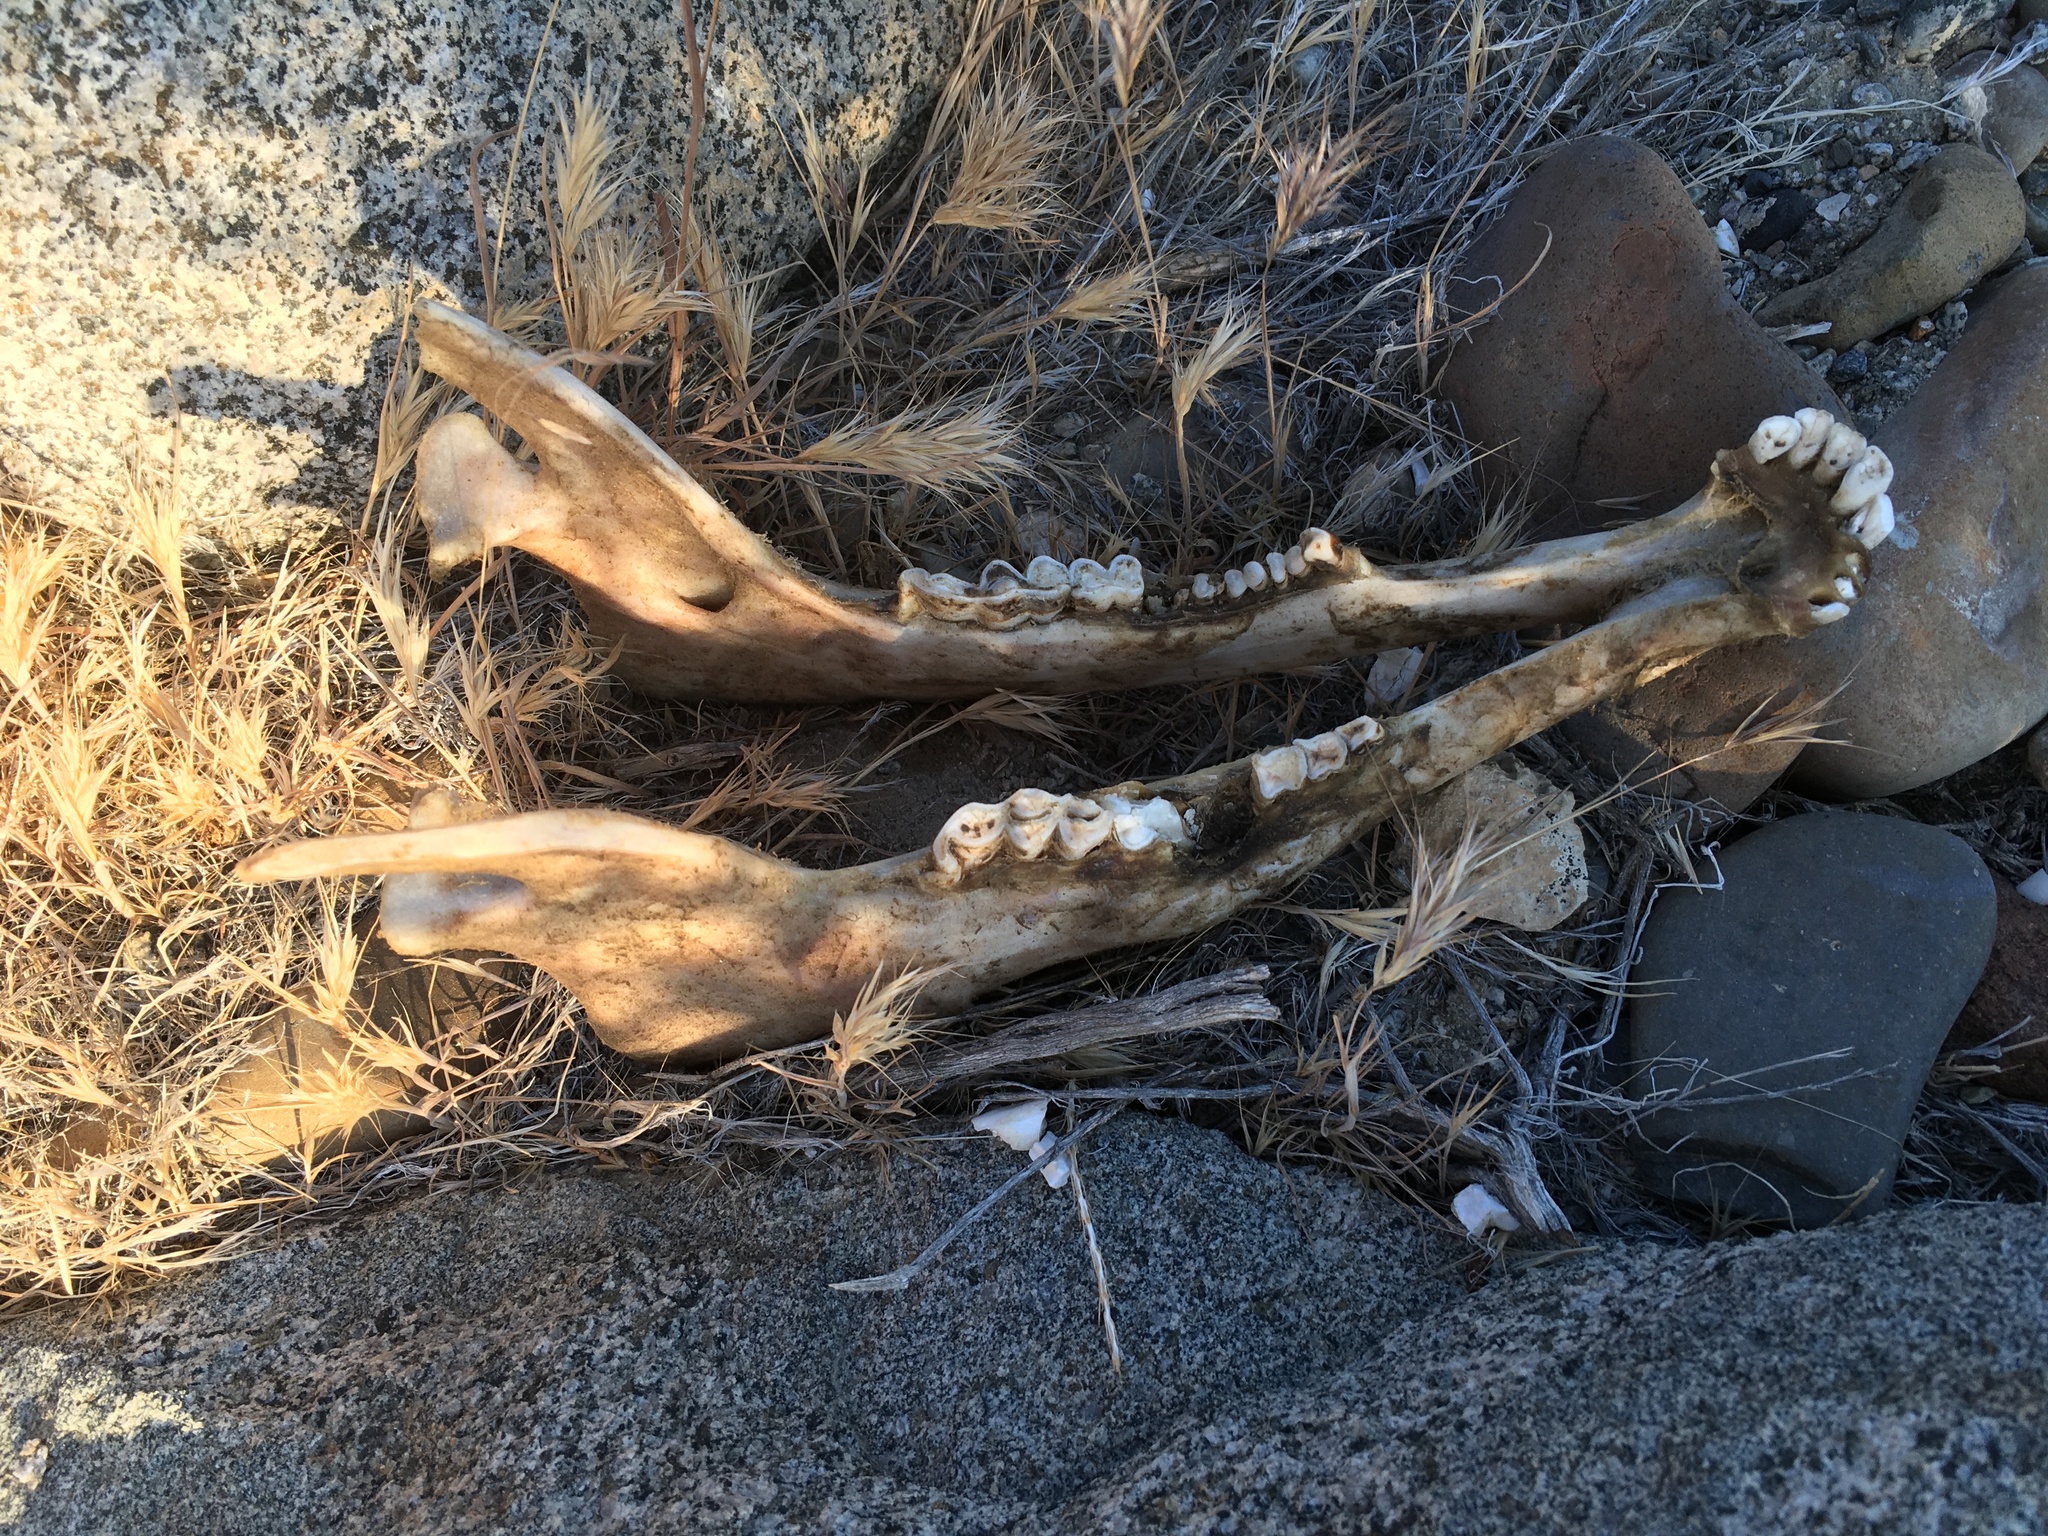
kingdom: Animalia
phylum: Chordata
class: Mammalia
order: Artiodactyla
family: Cervidae
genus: Odocoileus
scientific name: Odocoileus hemionus
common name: Mule deer
